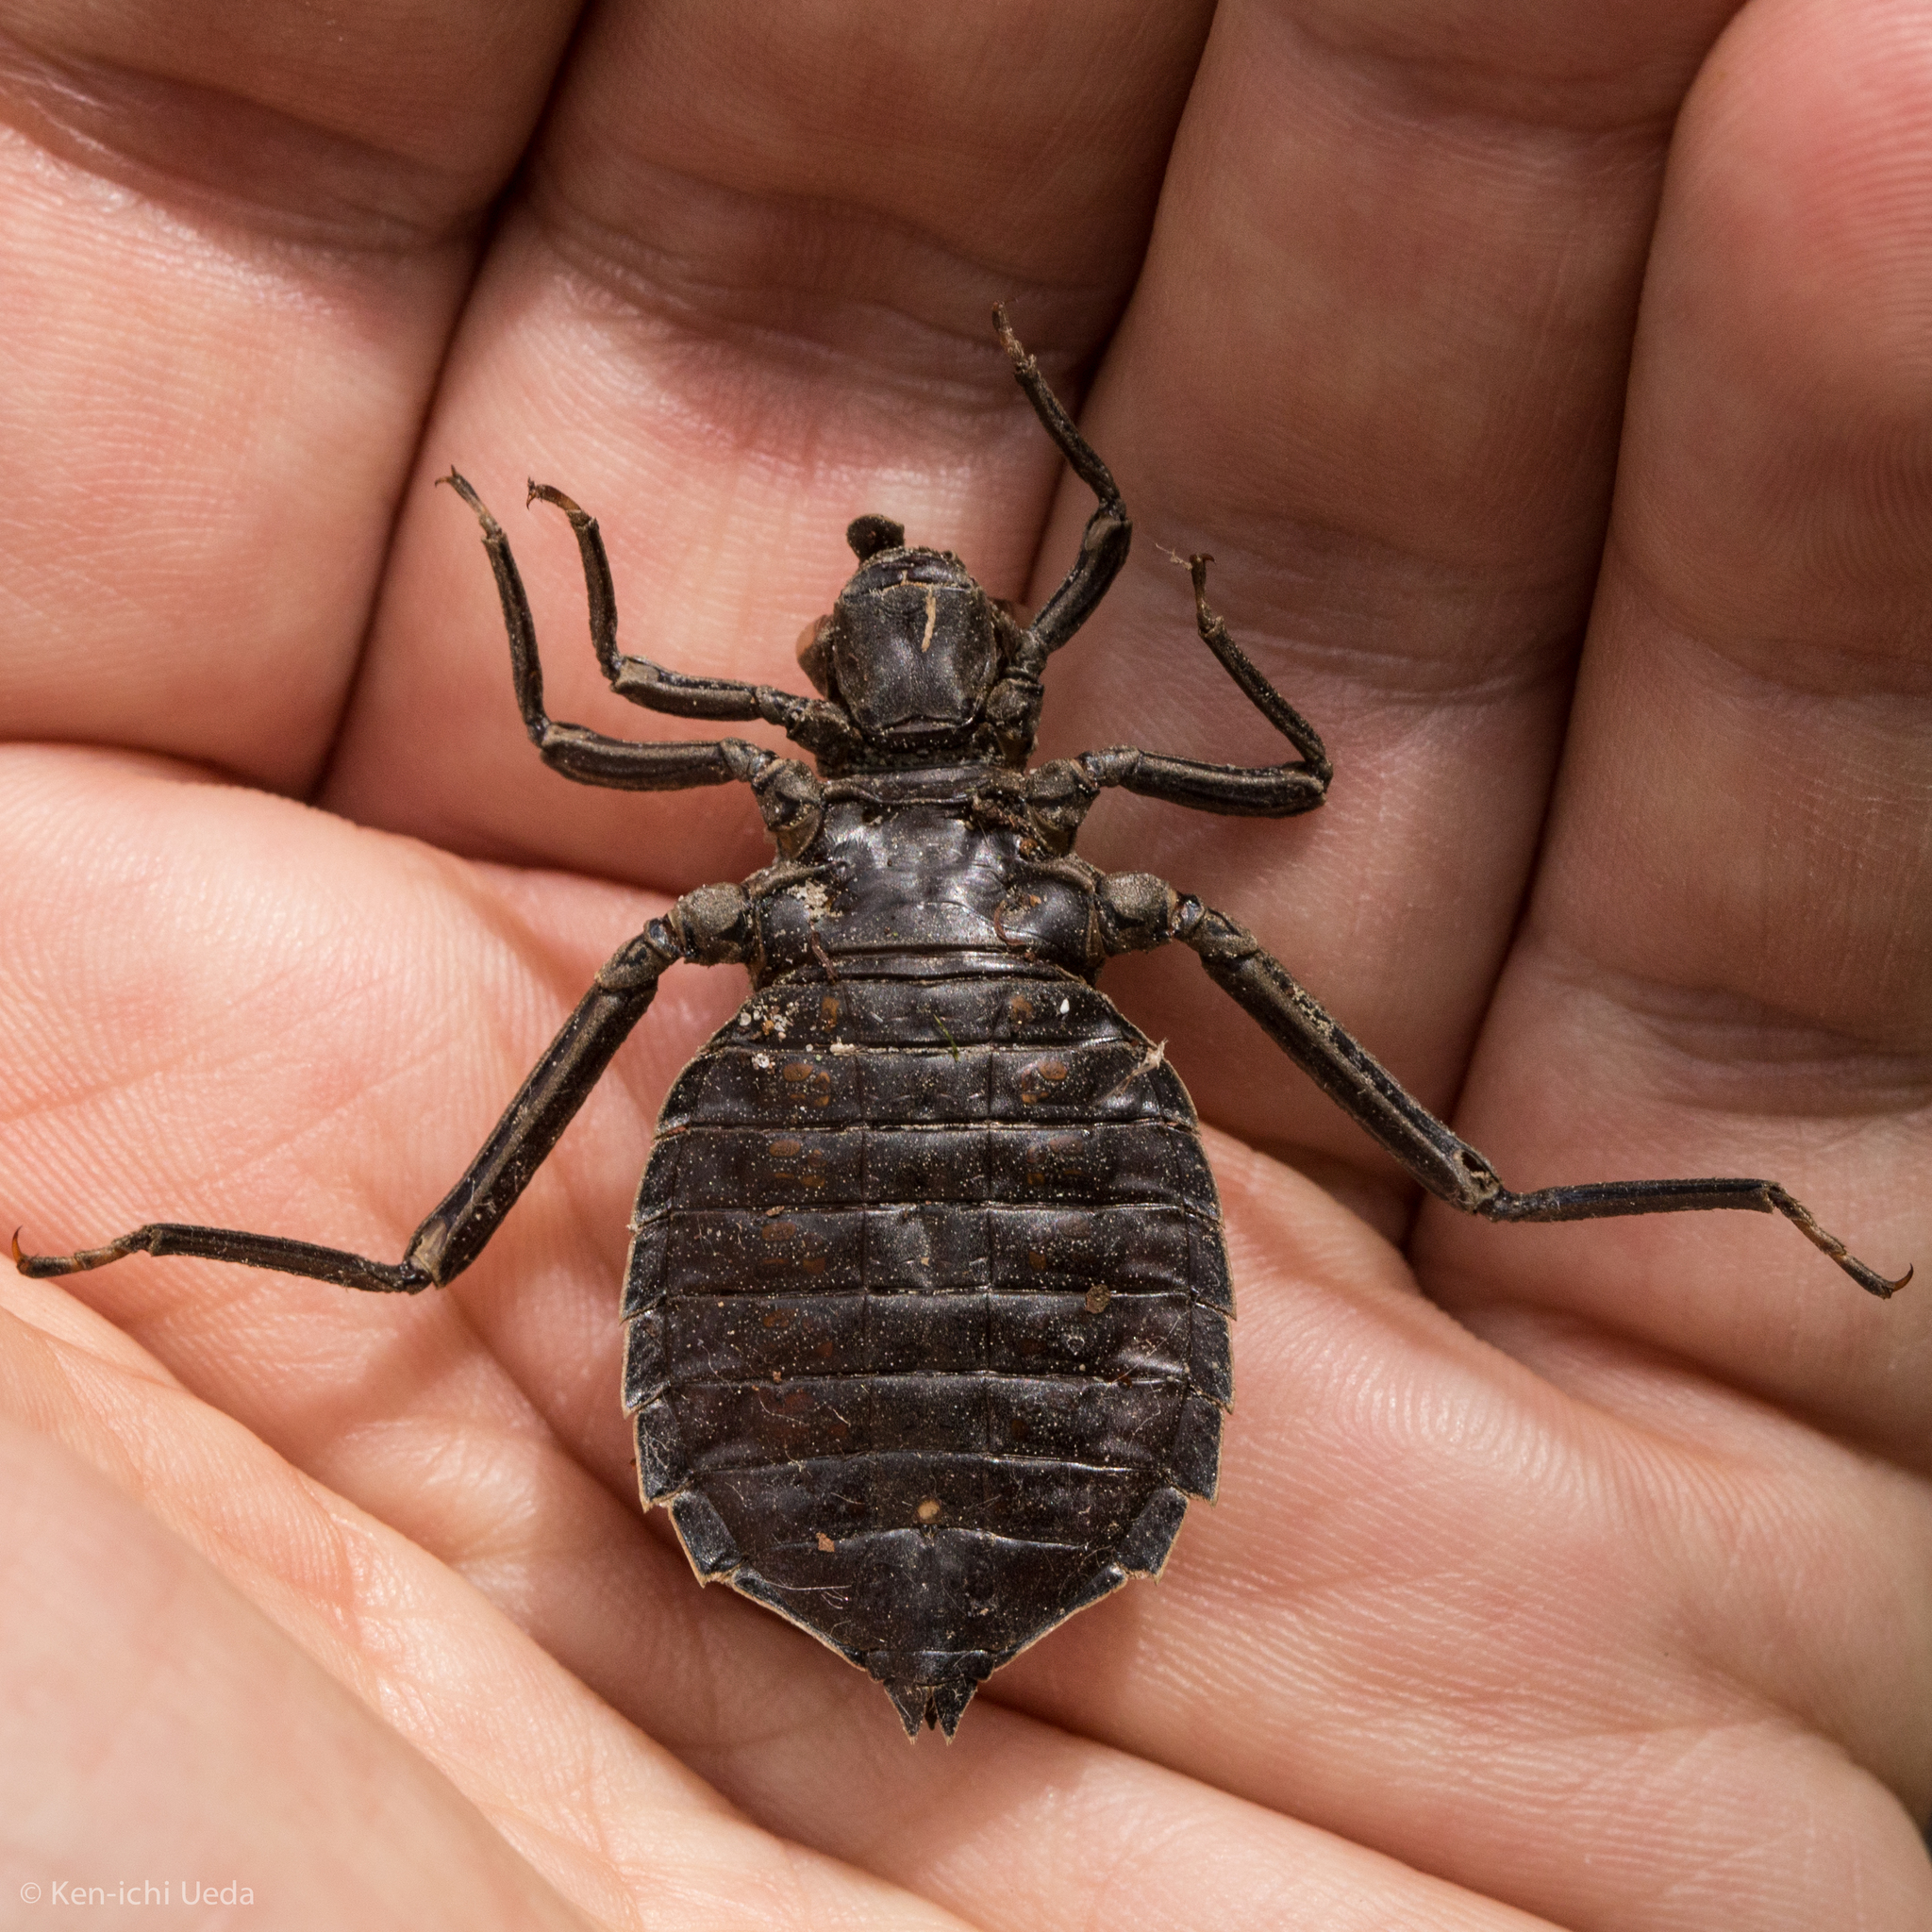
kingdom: Animalia
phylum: Arthropoda
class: Insecta
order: Odonata
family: Gomphidae
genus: Hagenius
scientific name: Hagenius brevistylus
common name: Dragonhunter
